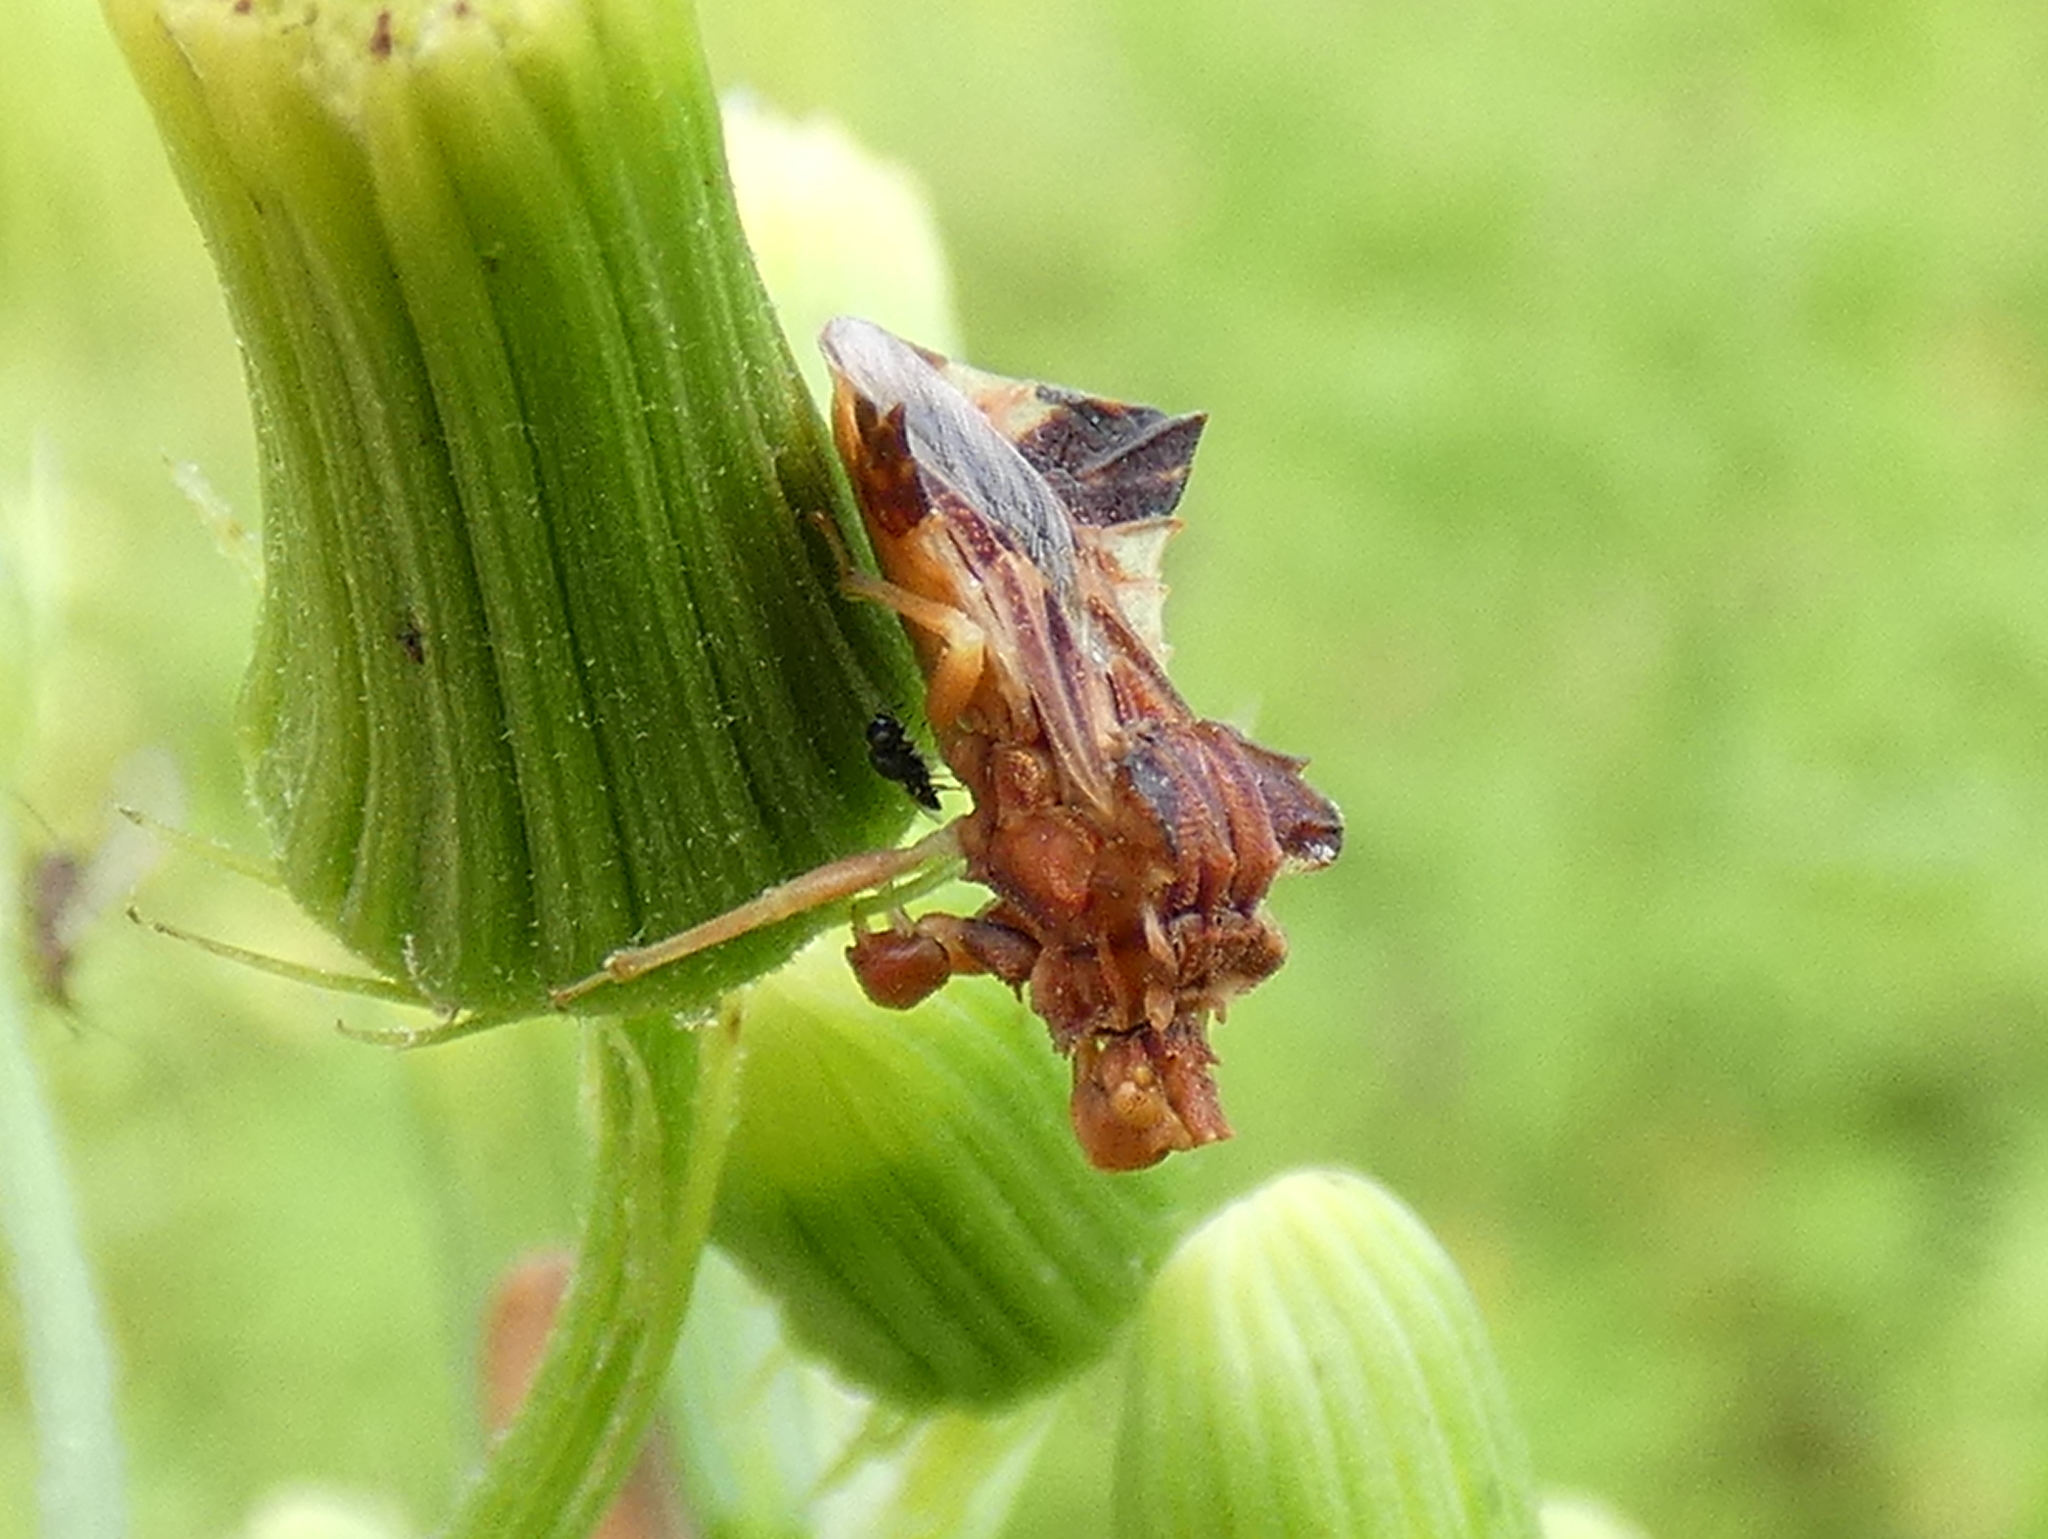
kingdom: Animalia
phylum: Arthropoda
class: Insecta
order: Hemiptera
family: Reduviidae
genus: Phymata
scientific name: Phymata fasciata
